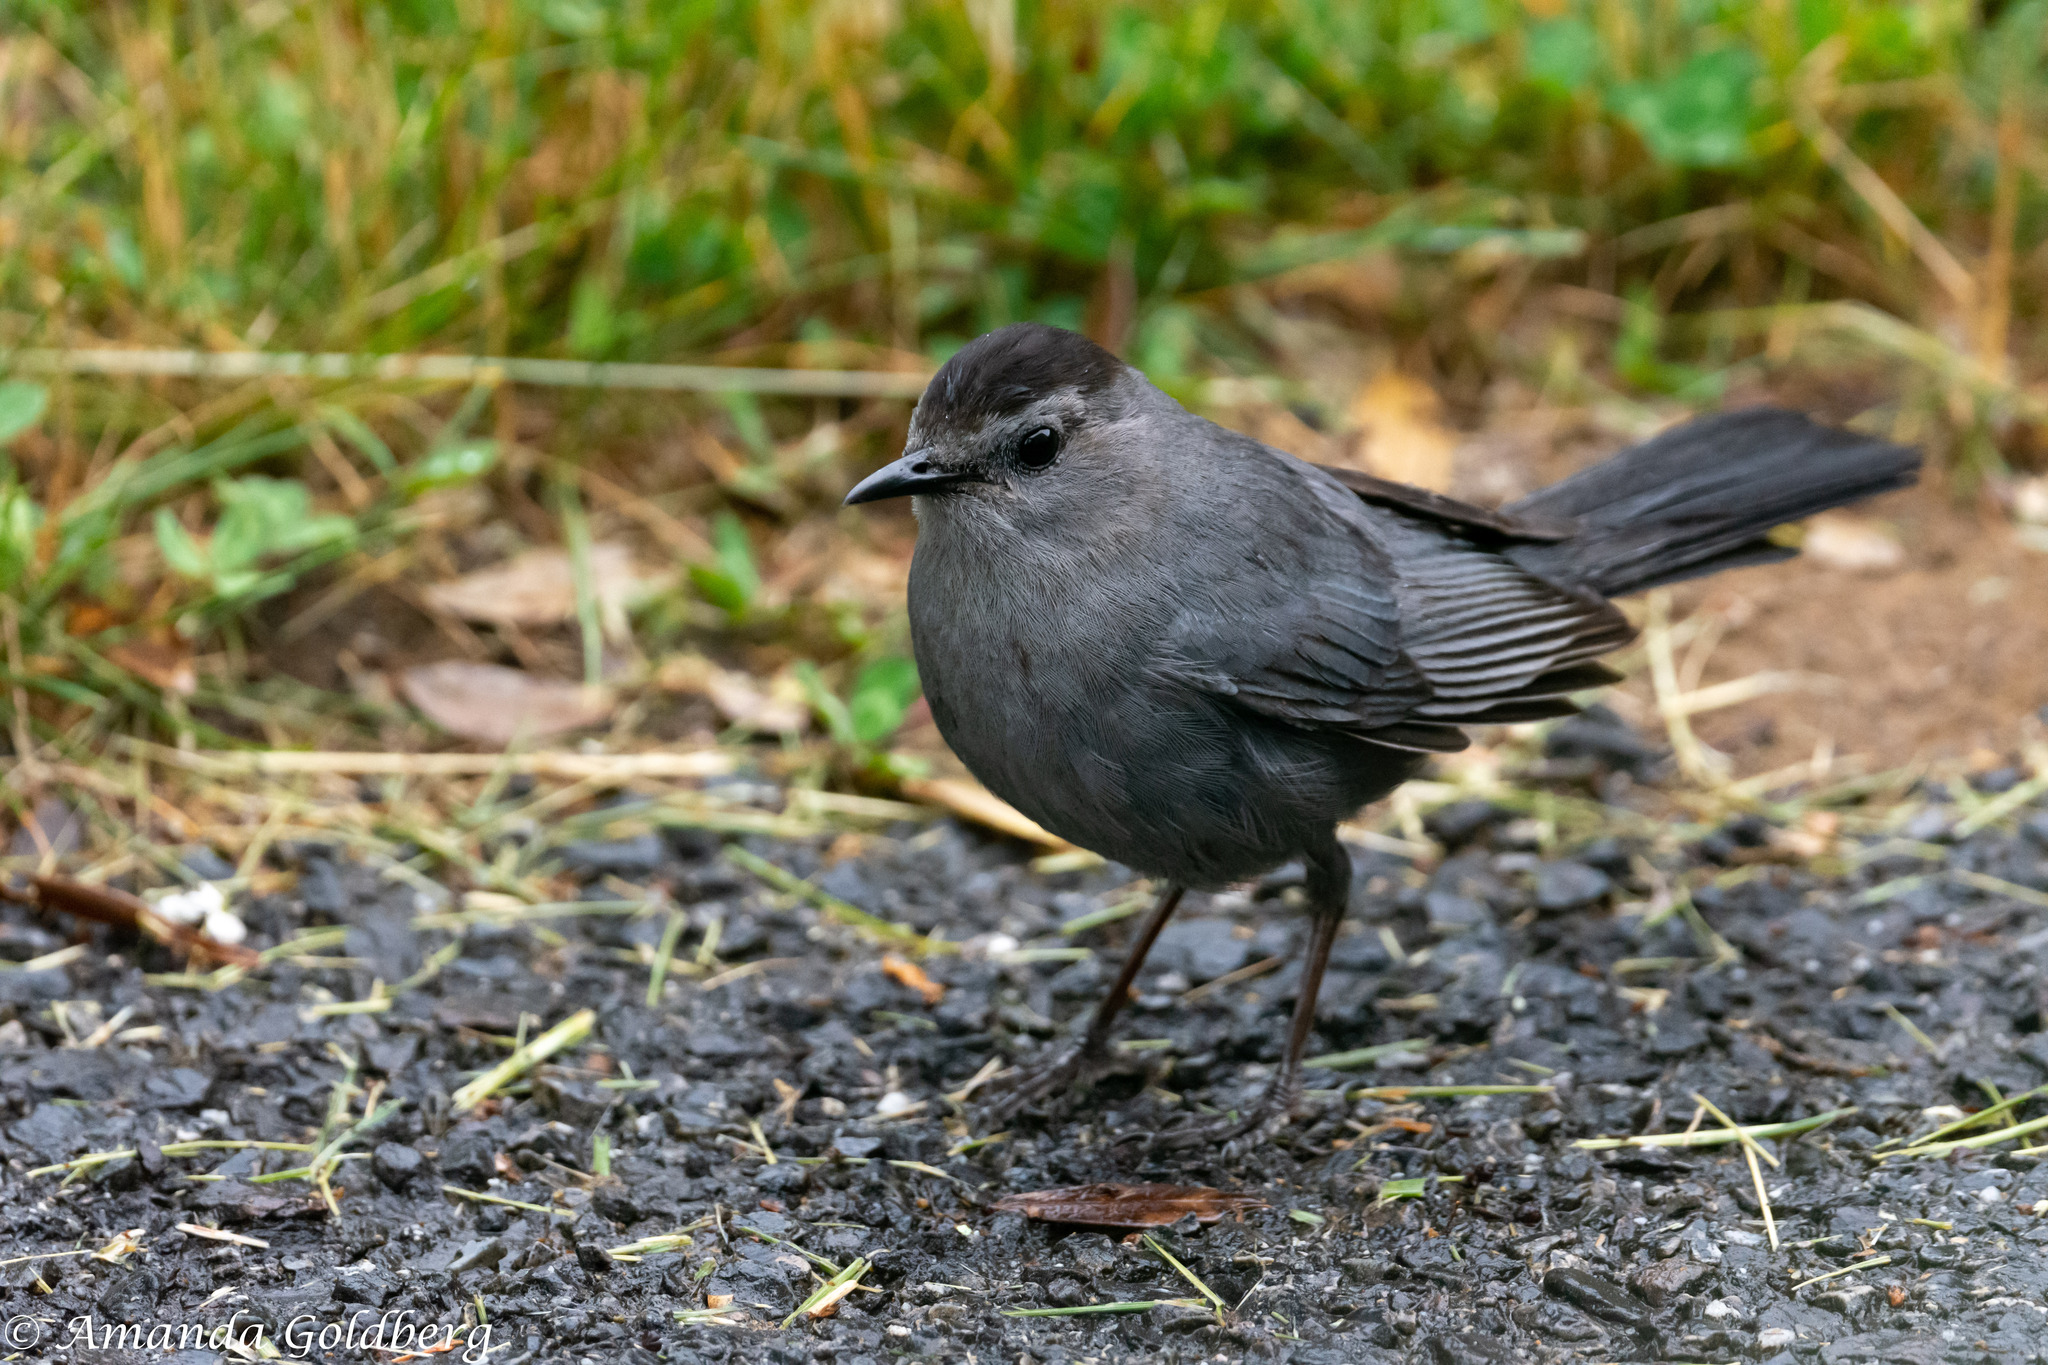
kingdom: Animalia
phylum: Chordata
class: Aves
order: Passeriformes
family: Mimidae
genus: Dumetella
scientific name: Dumetella carolinensis
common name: Gray catbird
